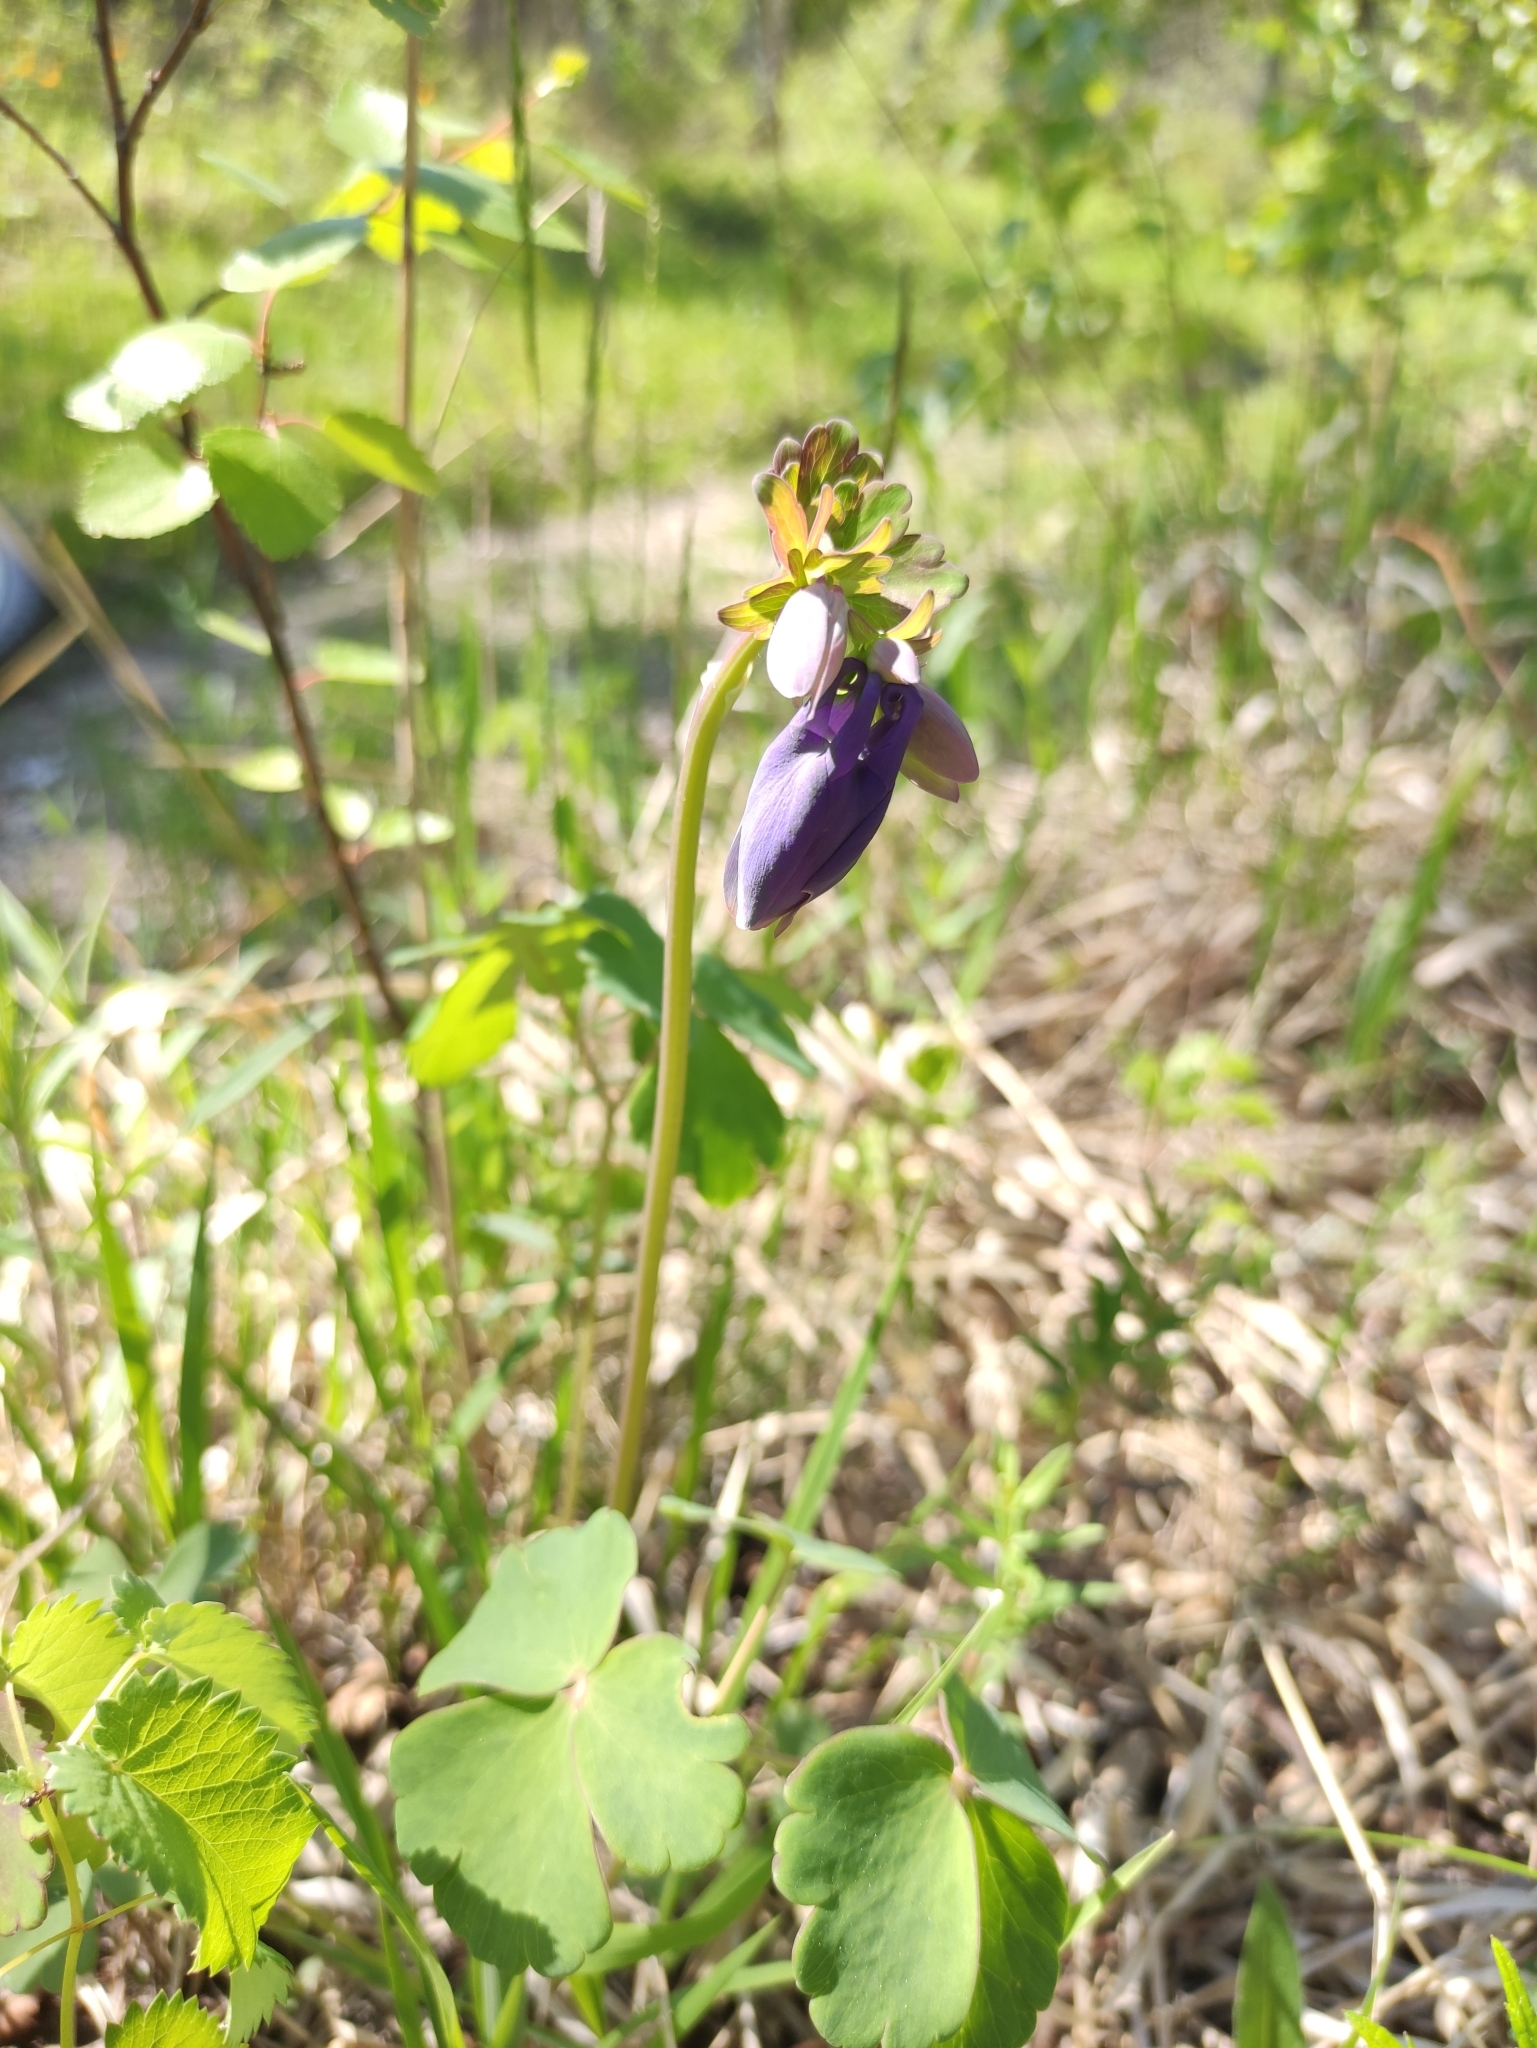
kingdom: Plantae
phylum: Tracheophyta
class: Magnoliopsida
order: Ranunculales
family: Ranunculaceae
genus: Aquilegia
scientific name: Aquilegia sibirica
